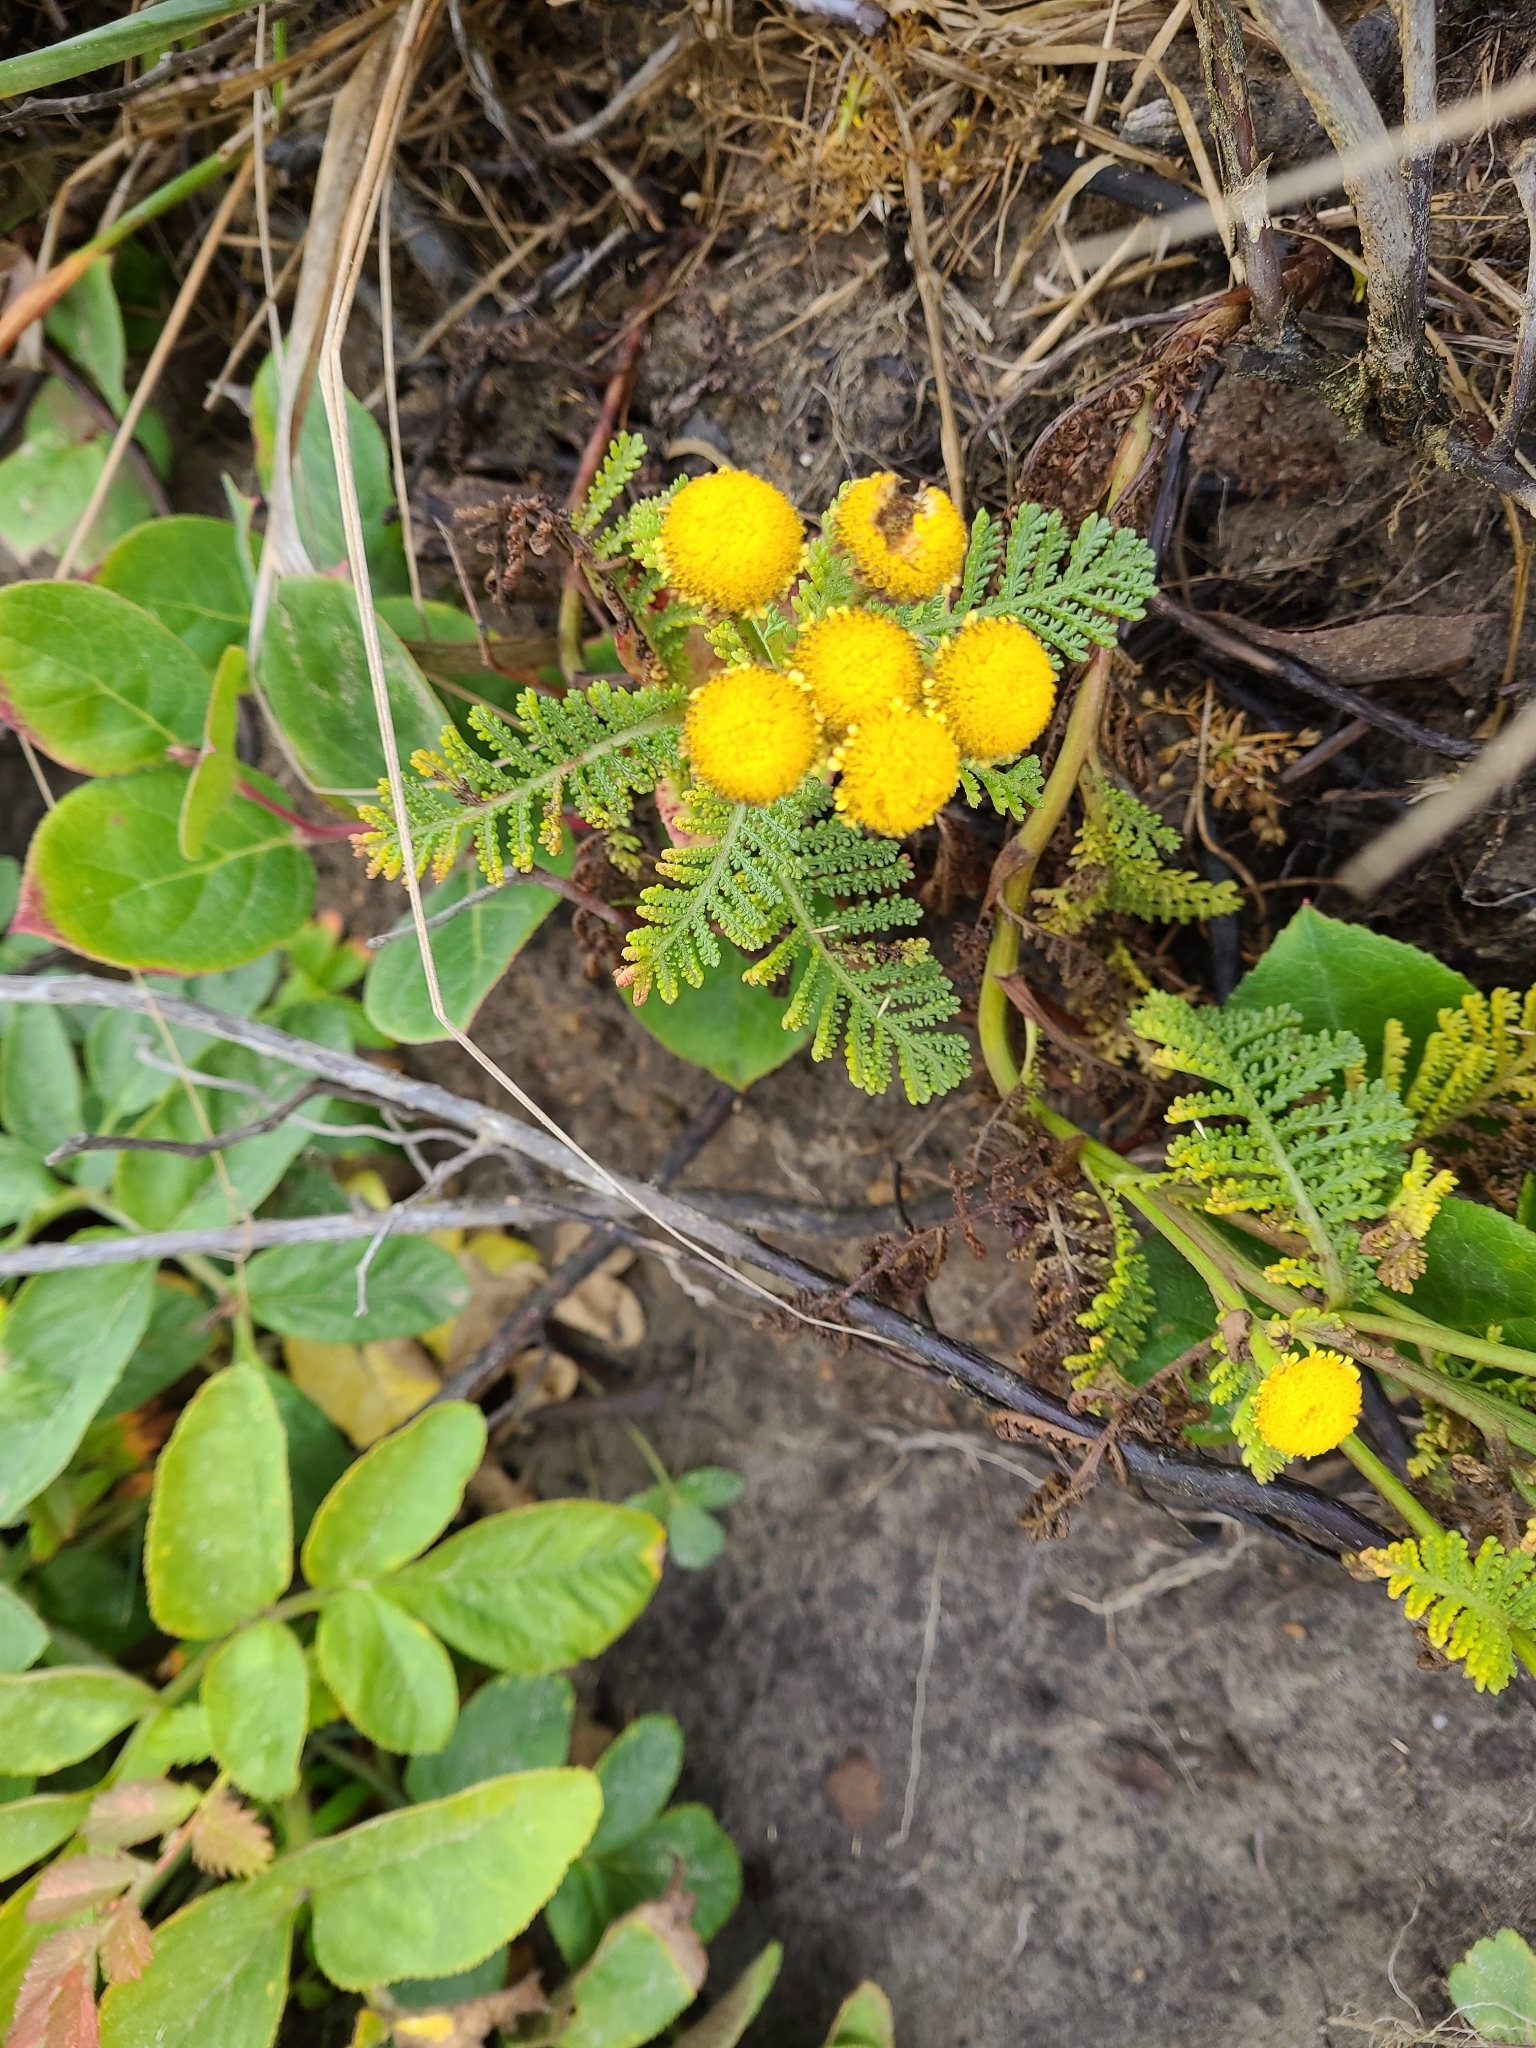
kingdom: Plantae
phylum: Tracheophyta
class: Magnoliopsida
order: Asterales
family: Asteraceae
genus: Tanacetum
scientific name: Tanacetum bipinnatum
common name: Dwarf tansy
